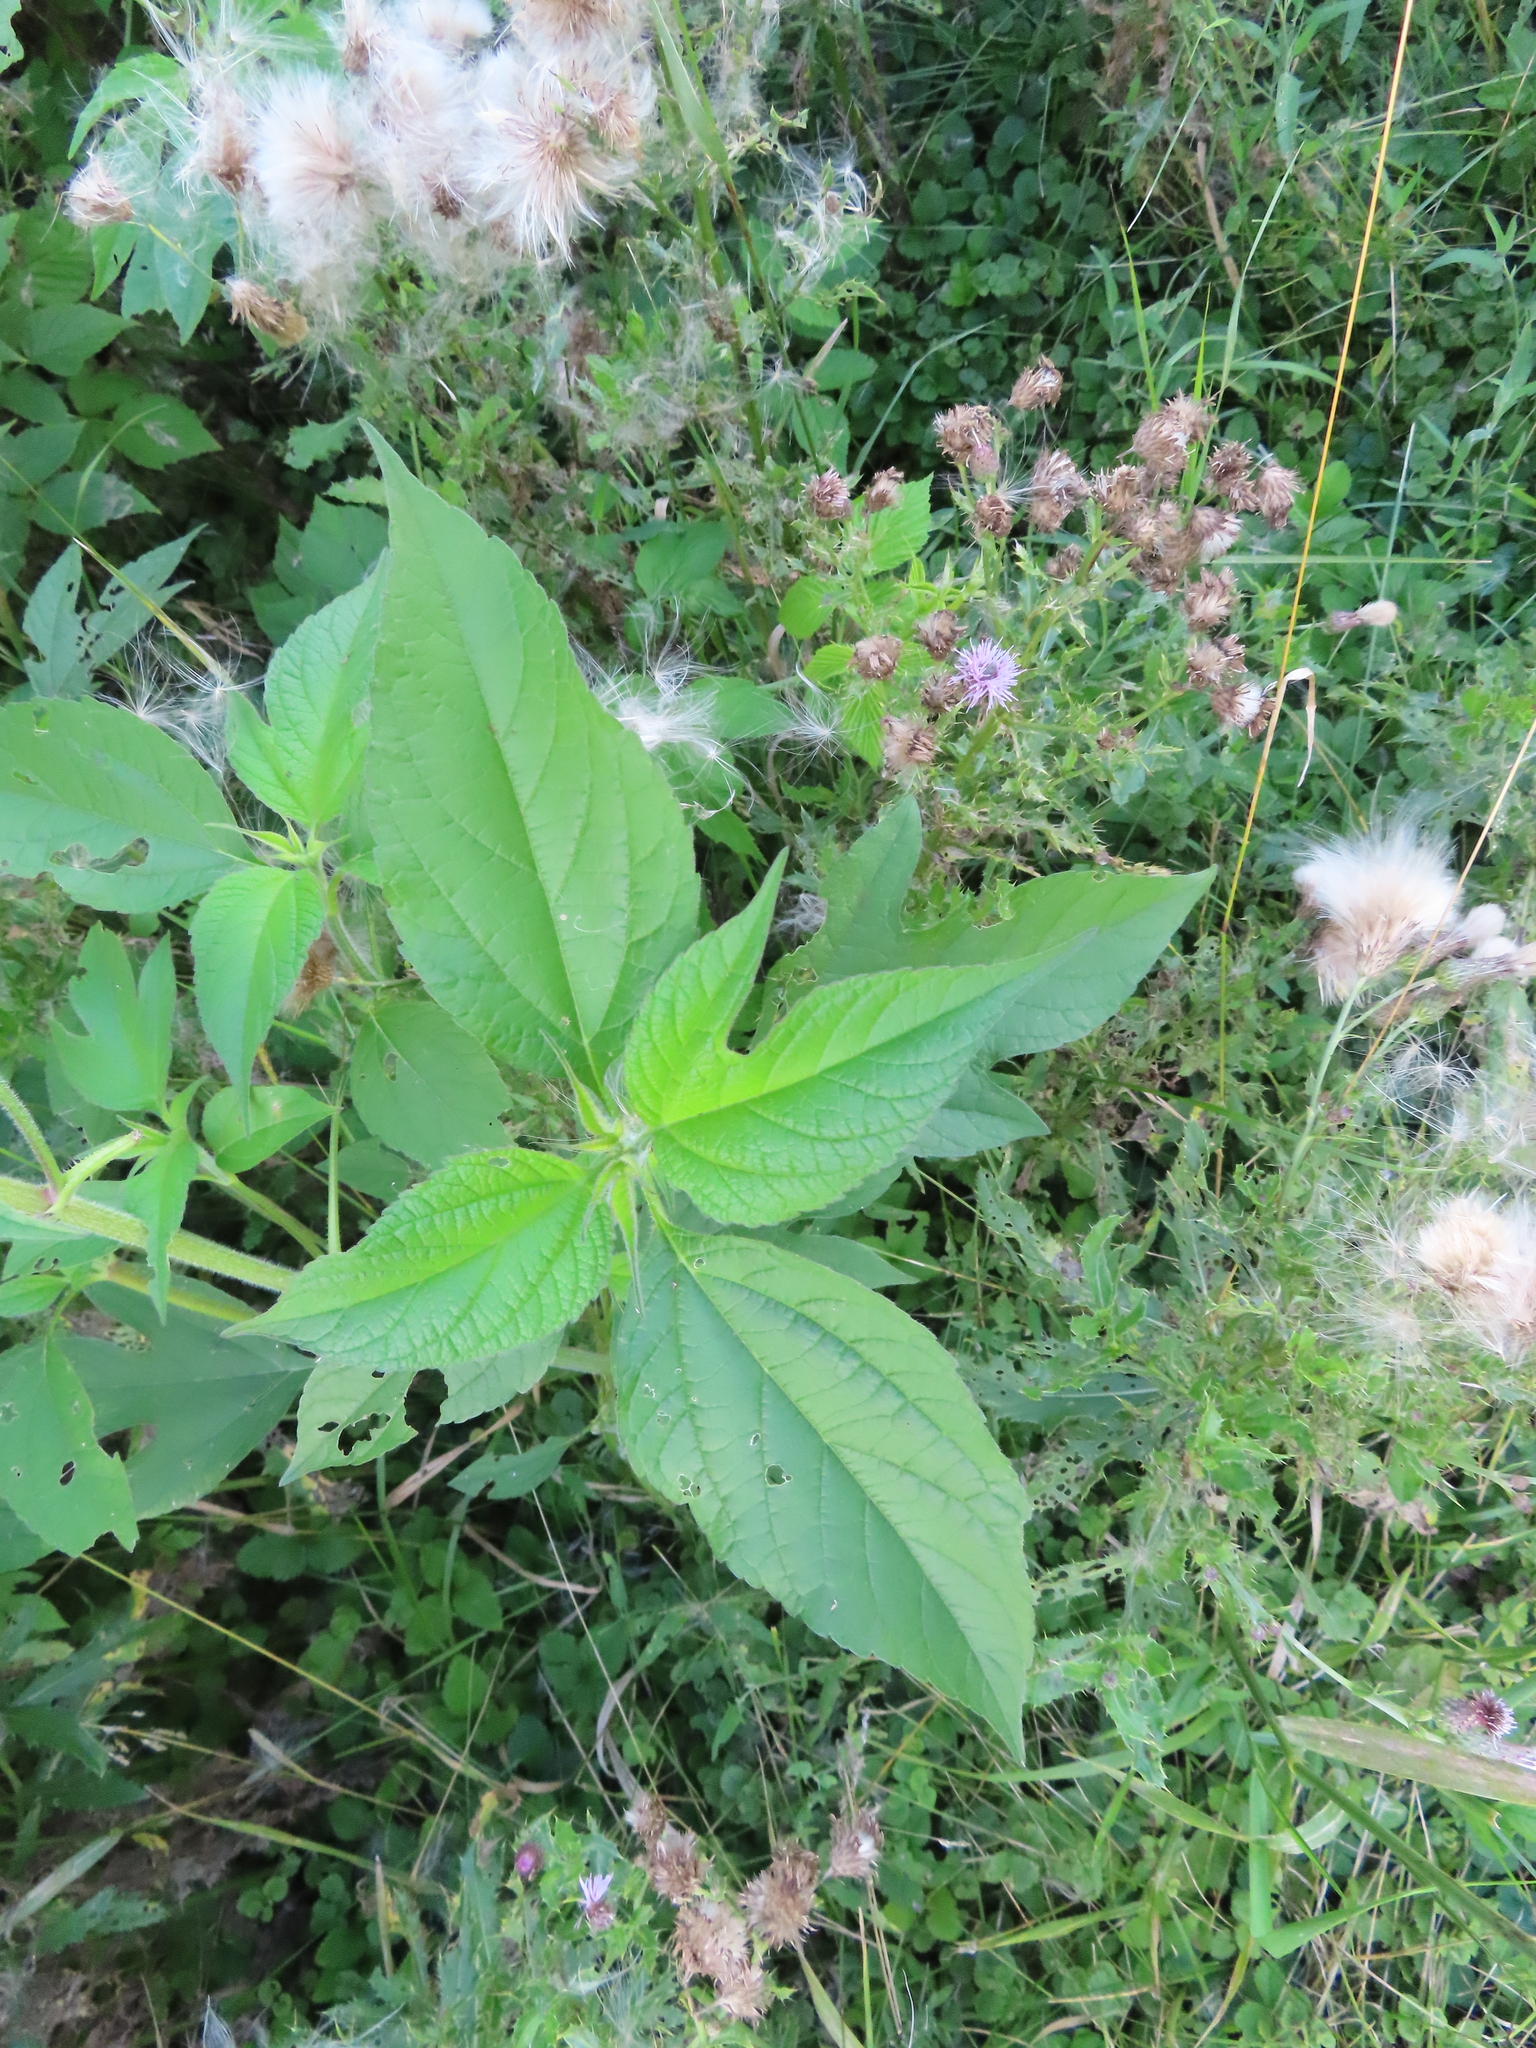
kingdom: Plantae
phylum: Tracheophyta
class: Magnoliopsida
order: Asterales
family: Asteraceae
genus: Ambrosia
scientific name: Ambrosia trifida
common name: Giant ragweed
